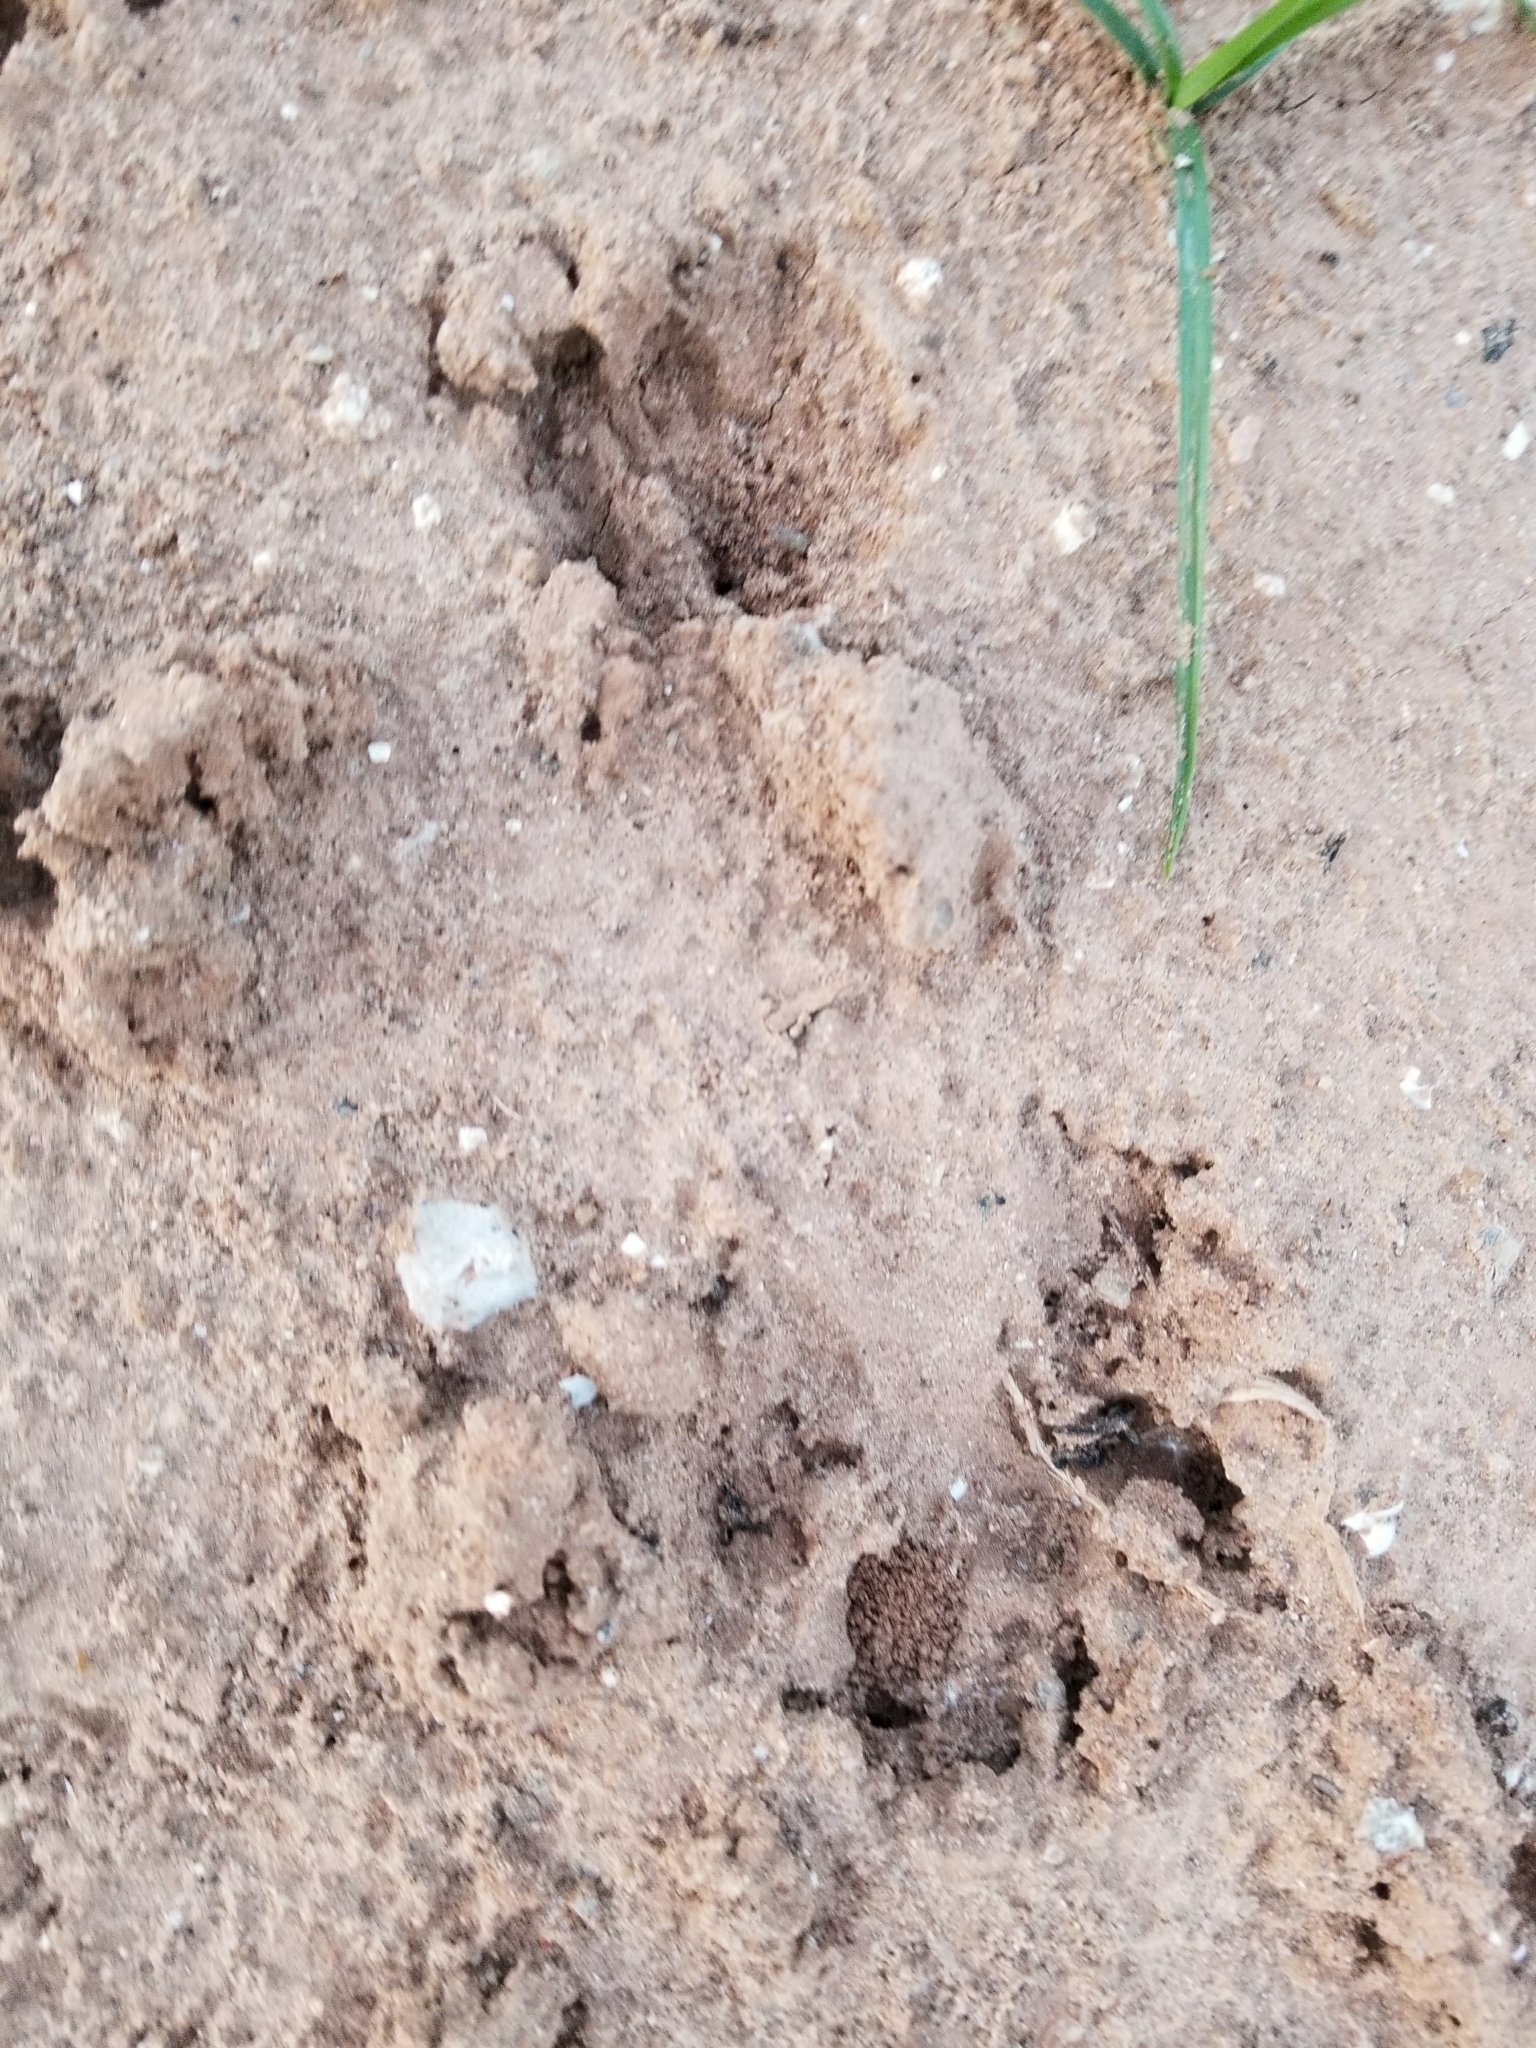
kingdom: Animalia
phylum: Chordata
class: Mammalia
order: Cingulata
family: Dasypodidae
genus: Dasypus
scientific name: Dasypus novemcinctus
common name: Nine-banded armadillo
